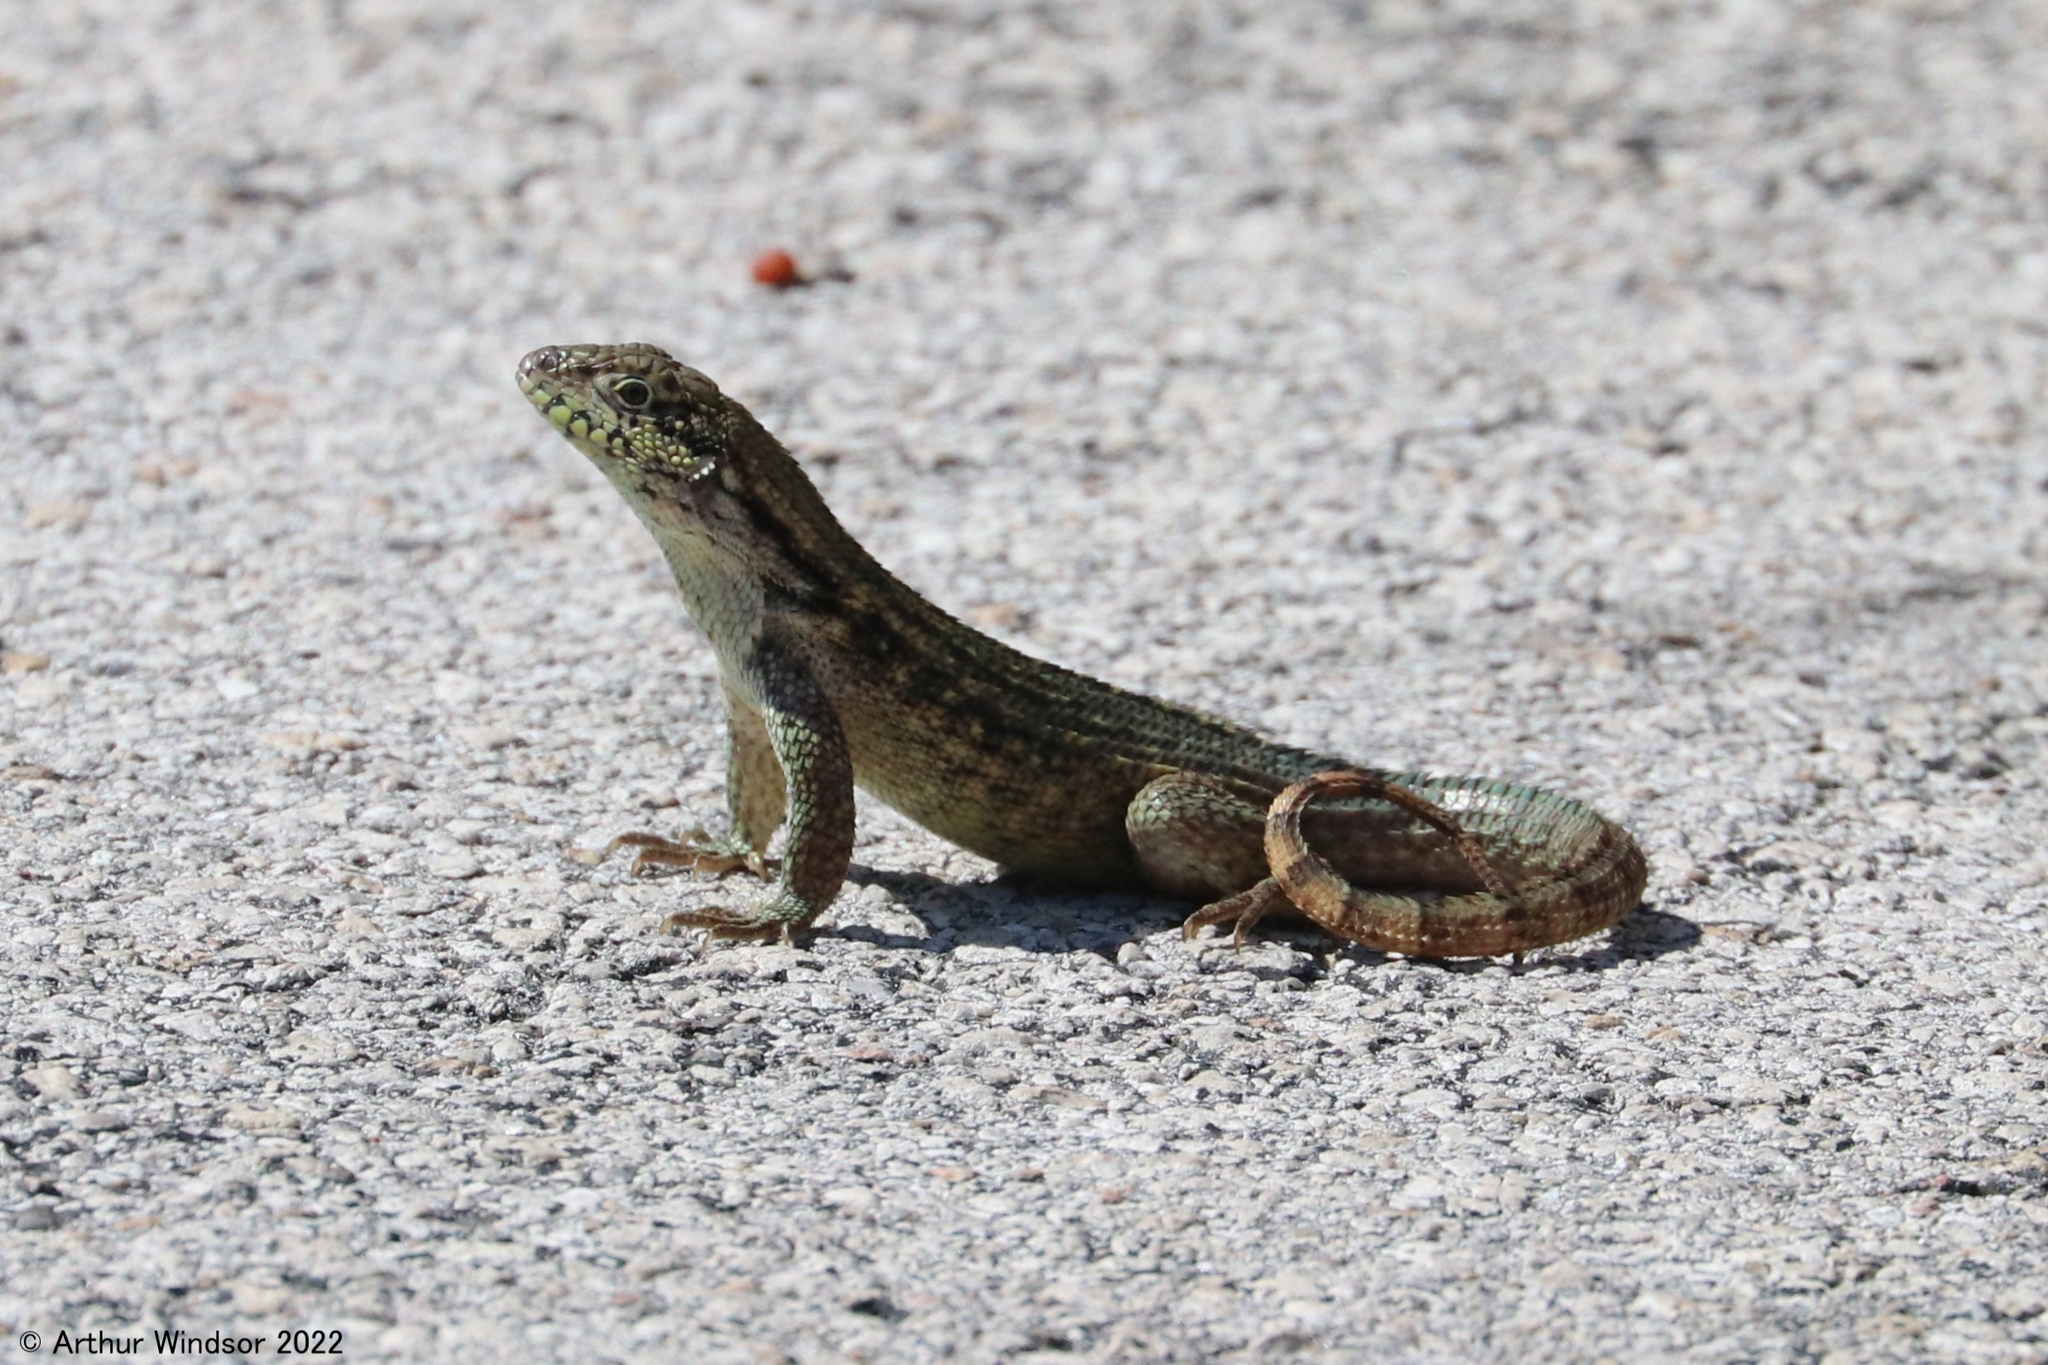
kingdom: Animalia
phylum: Chordata
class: Squamata
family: Leiocephalidae
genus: Leiocephalus
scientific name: Leiocephalus carinatus
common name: Northern curly-tailed lizard
